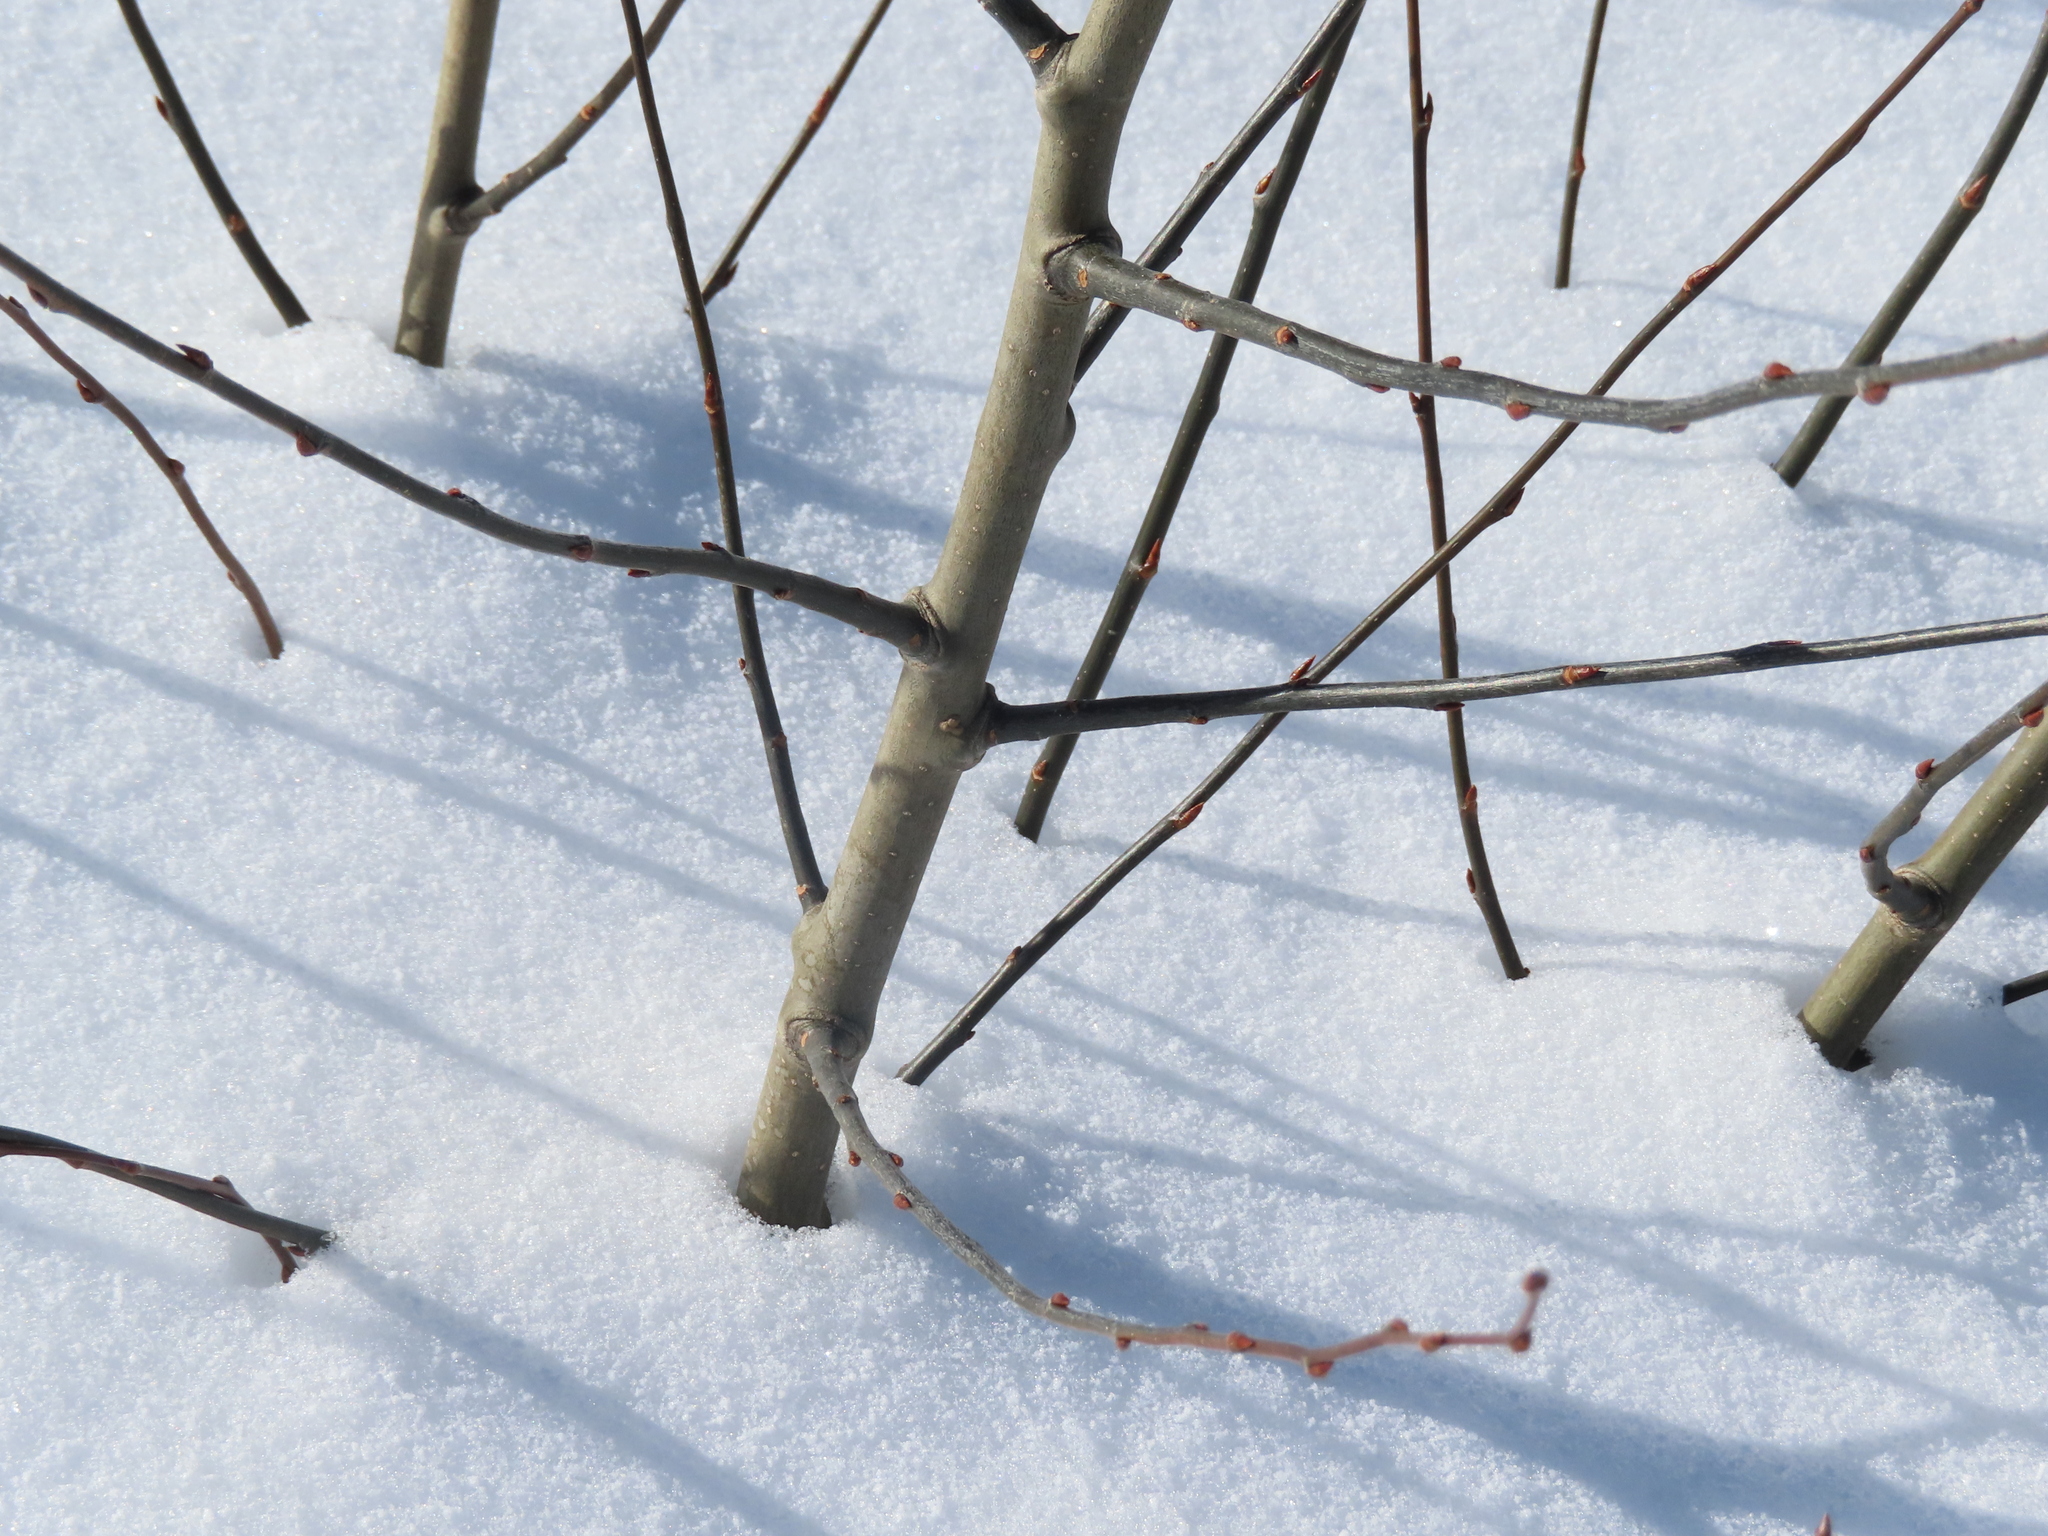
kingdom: Plantae
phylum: Tracheophyta
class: Magnoliopsida
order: Malpighiales
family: Salicaceae
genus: Populus
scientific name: Populus tremuloides
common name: Quaking aspen
